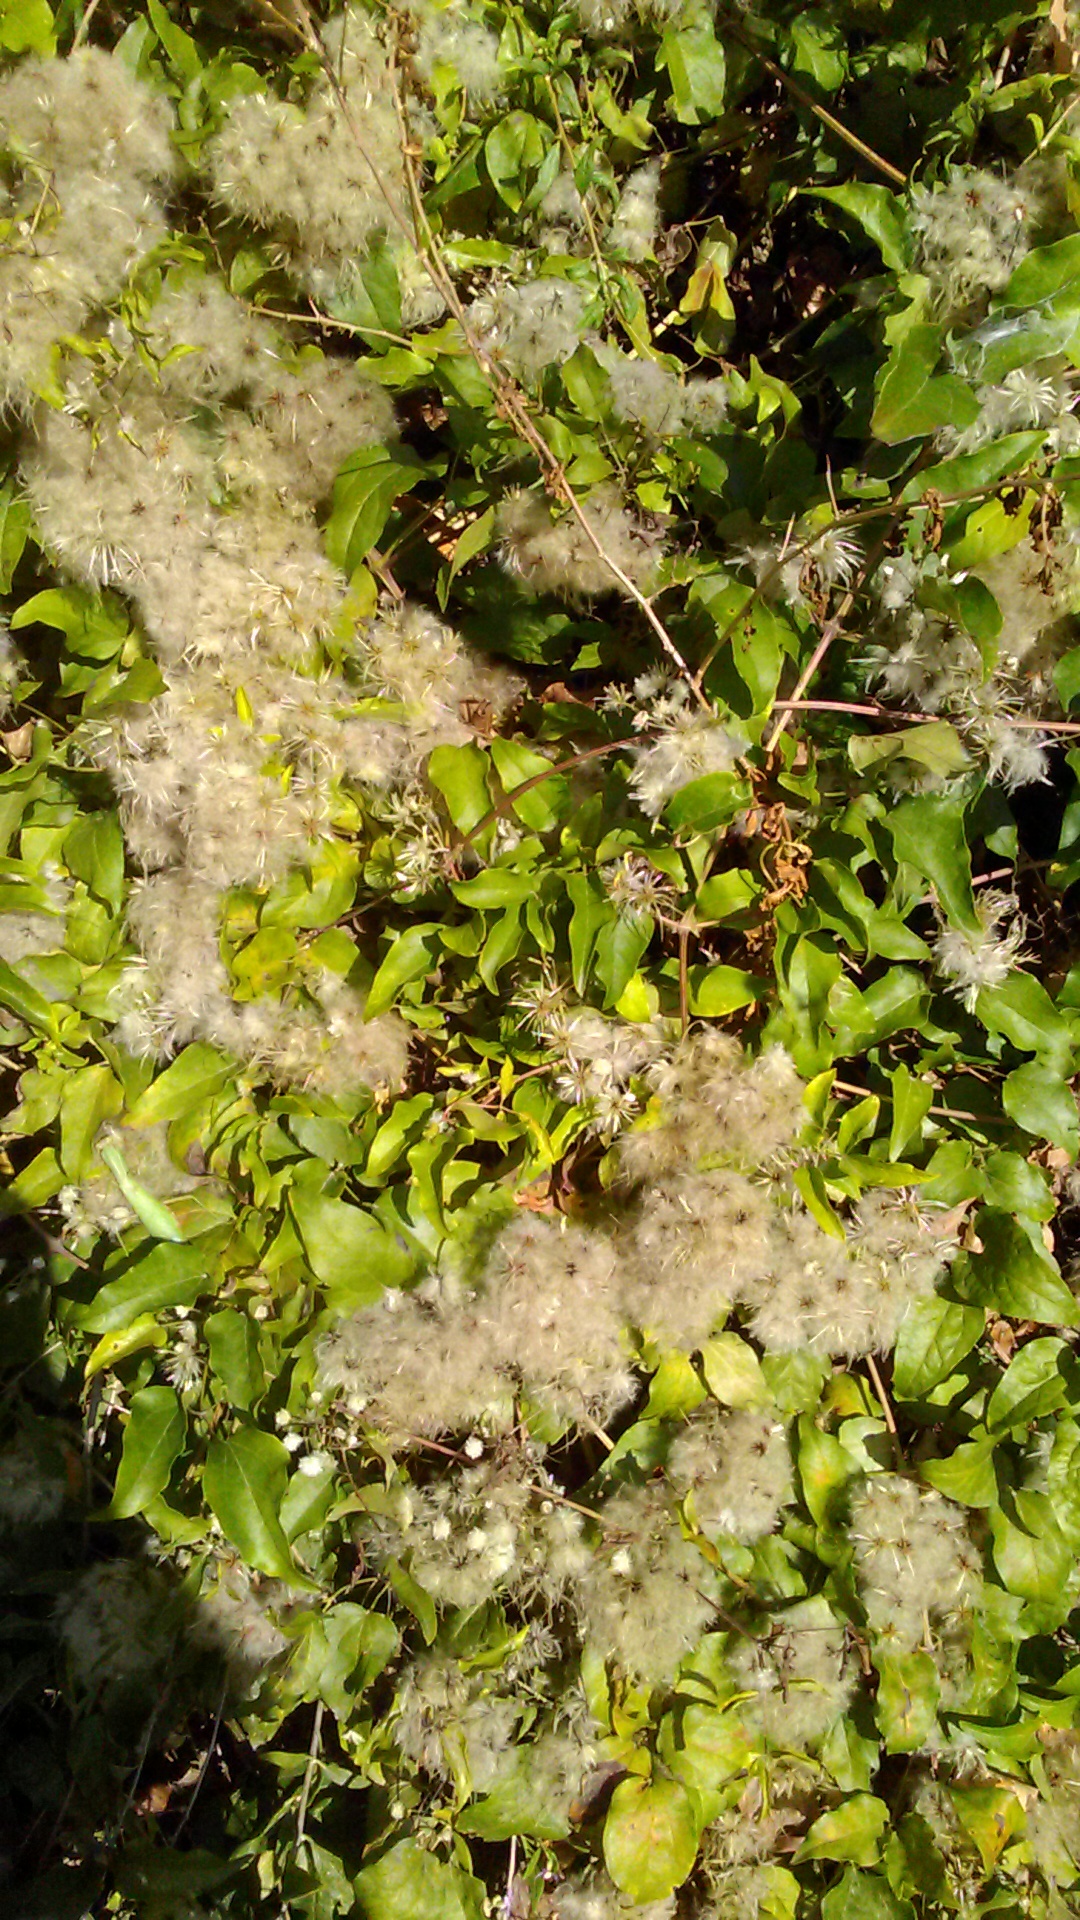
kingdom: Plantae
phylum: Tracheophyta
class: Magnoliopsida
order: Ranunculales
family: Ranunculaceae
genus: Clematis
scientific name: Clematis vitalba
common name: Evergreen clematis
